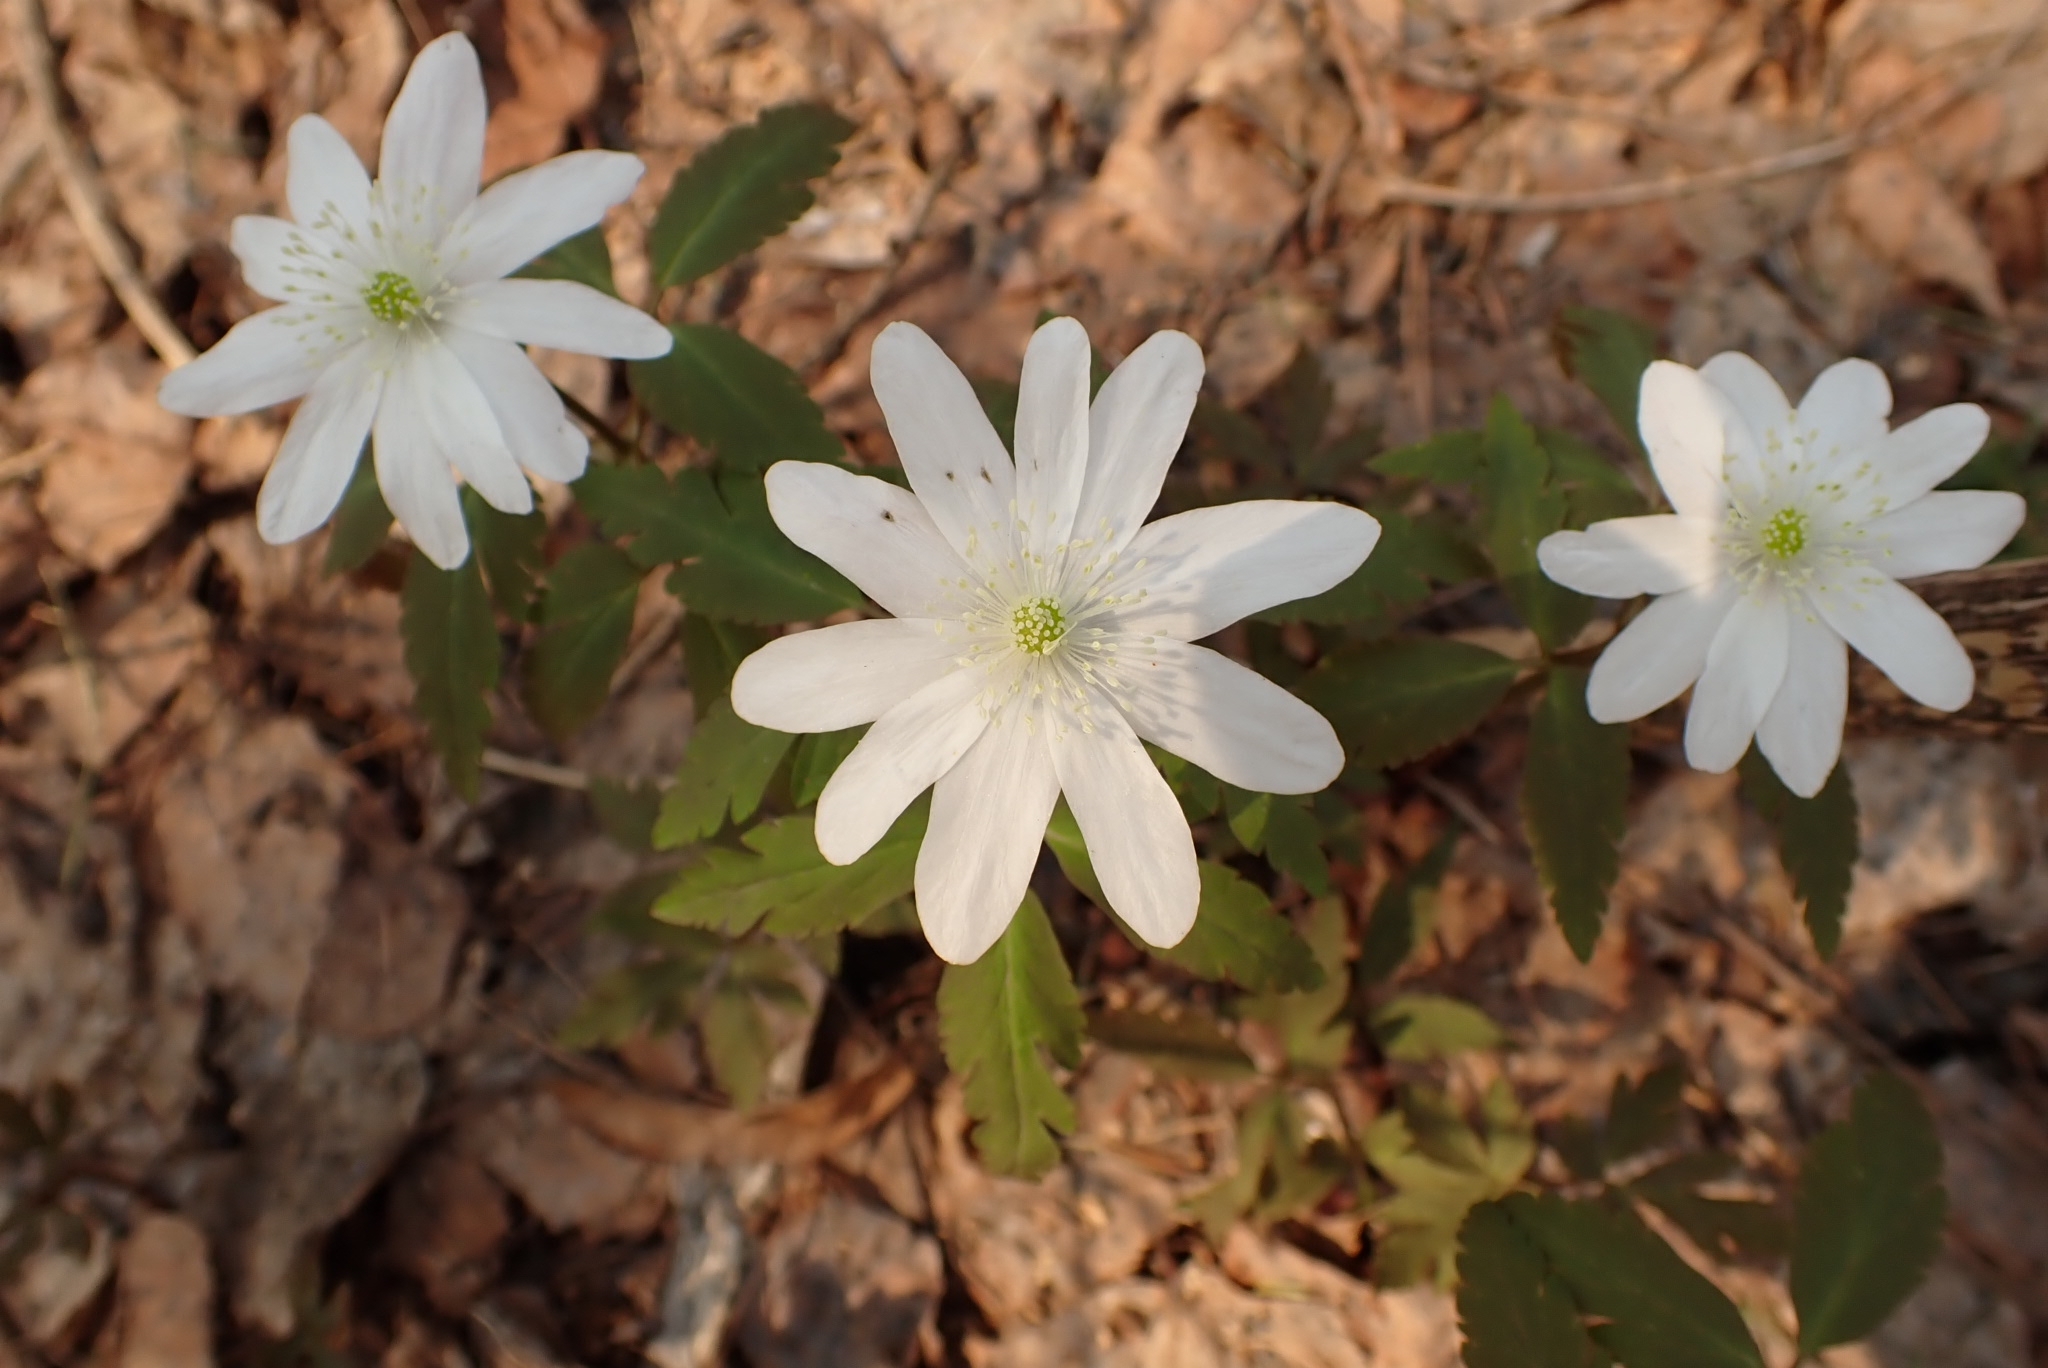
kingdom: Plantae
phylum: Tracheophyta
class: Magnoliopsida
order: Ranunculales
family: Ranunculaceae
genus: Anemone
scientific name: Anemone altaica
